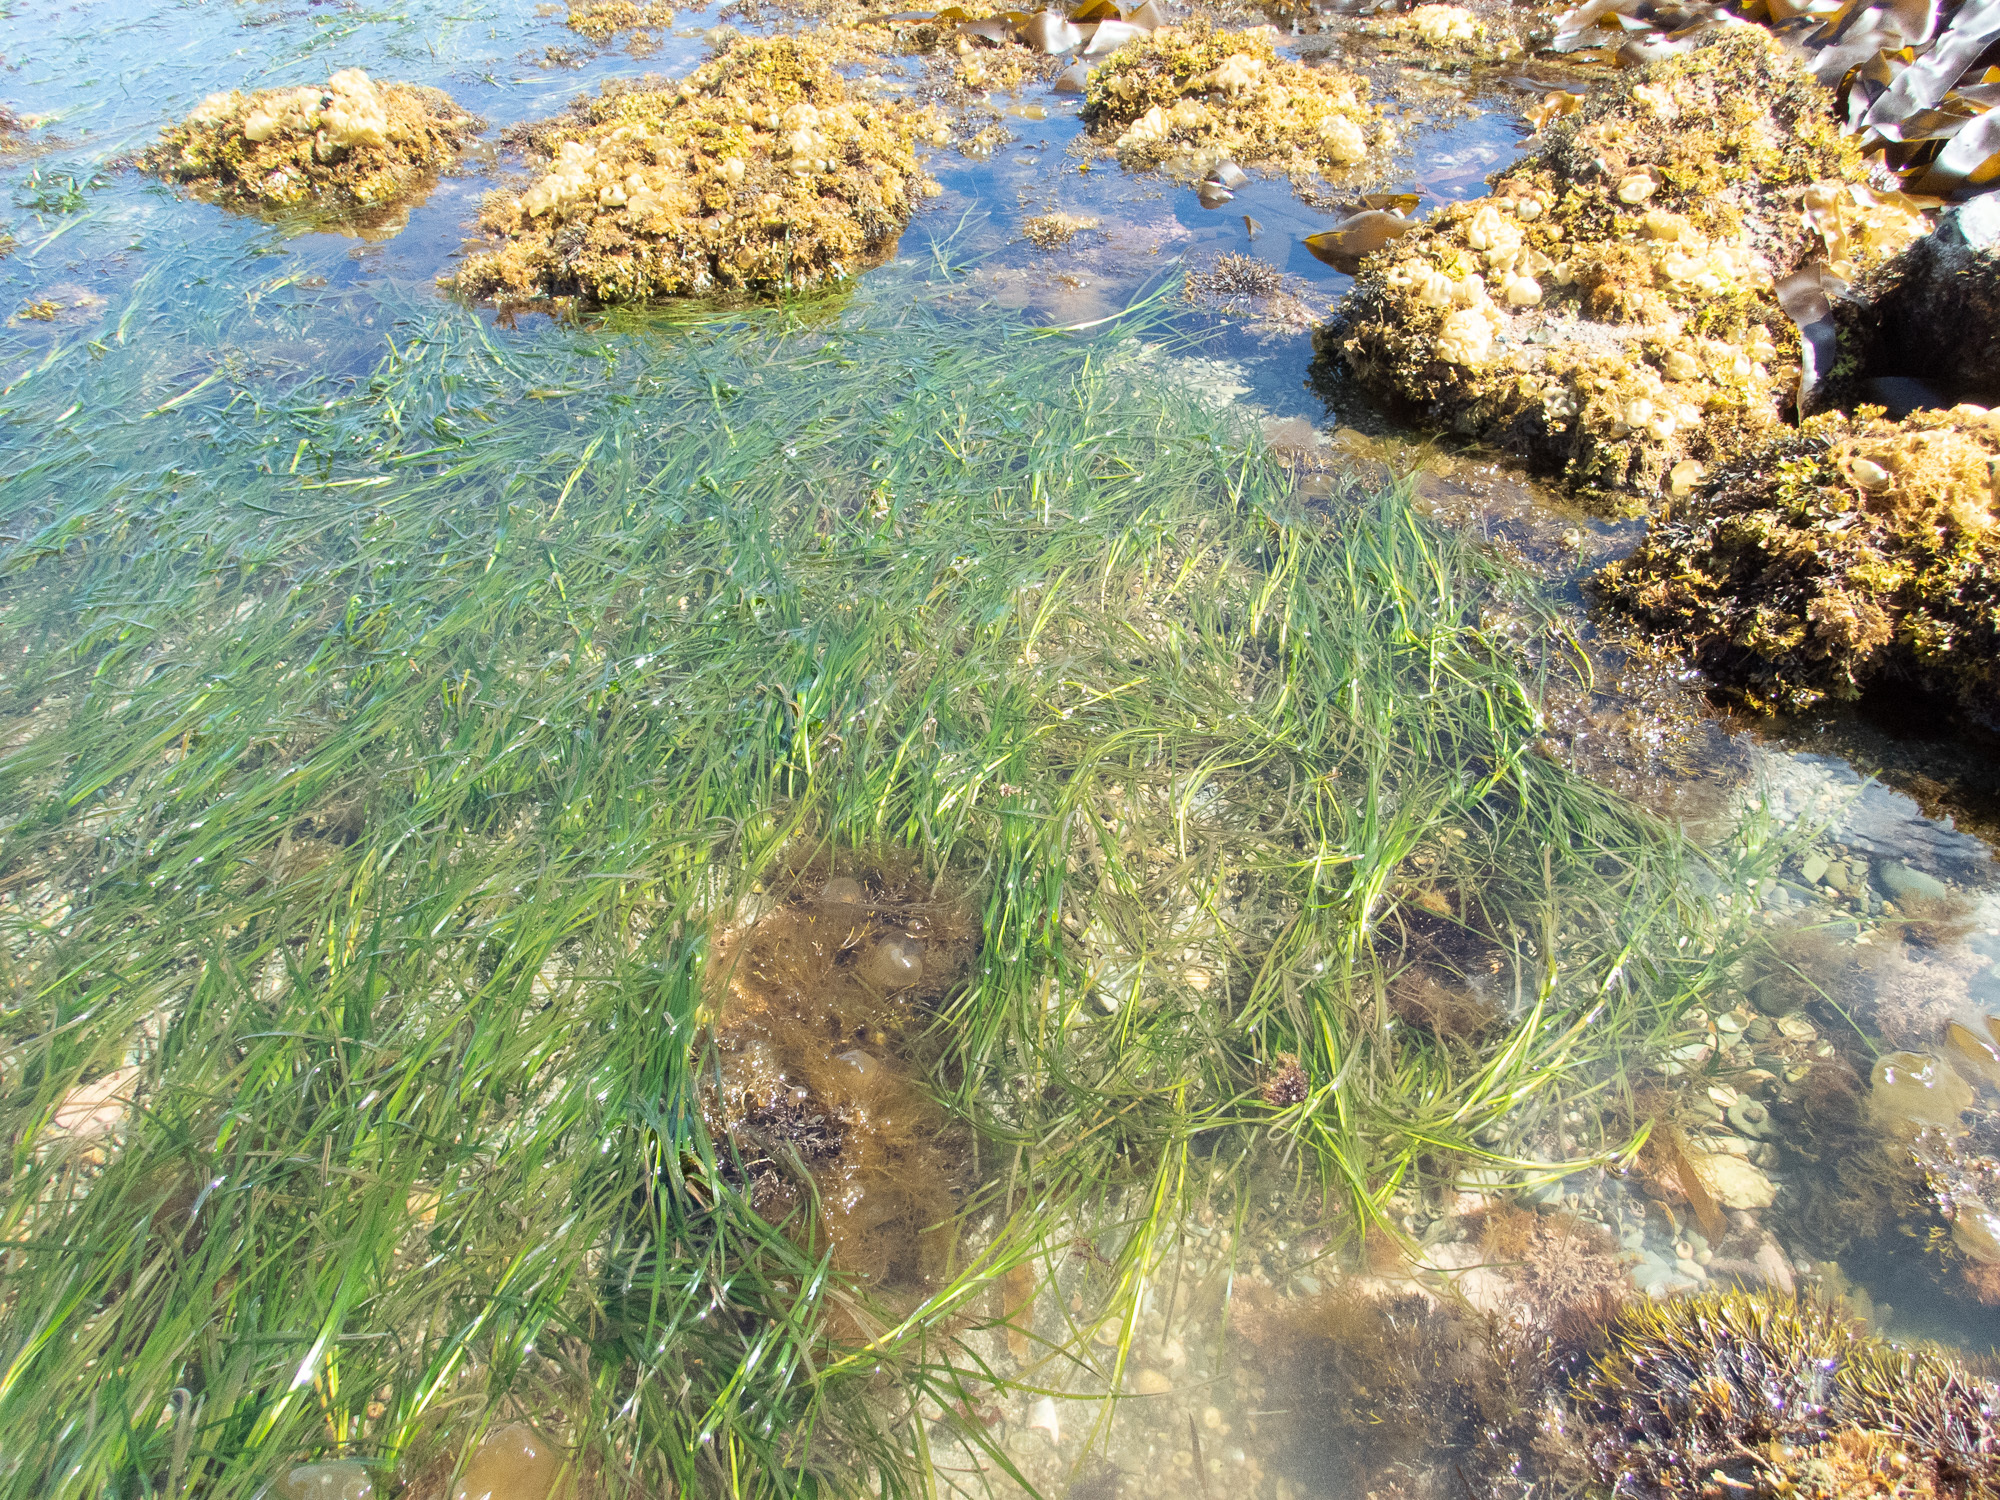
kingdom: Plantae
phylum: Tracheophyta
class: Liliopsida
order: Alismatales
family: Zosteraceae
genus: Zostera
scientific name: Zostera marina
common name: Eelgrass
